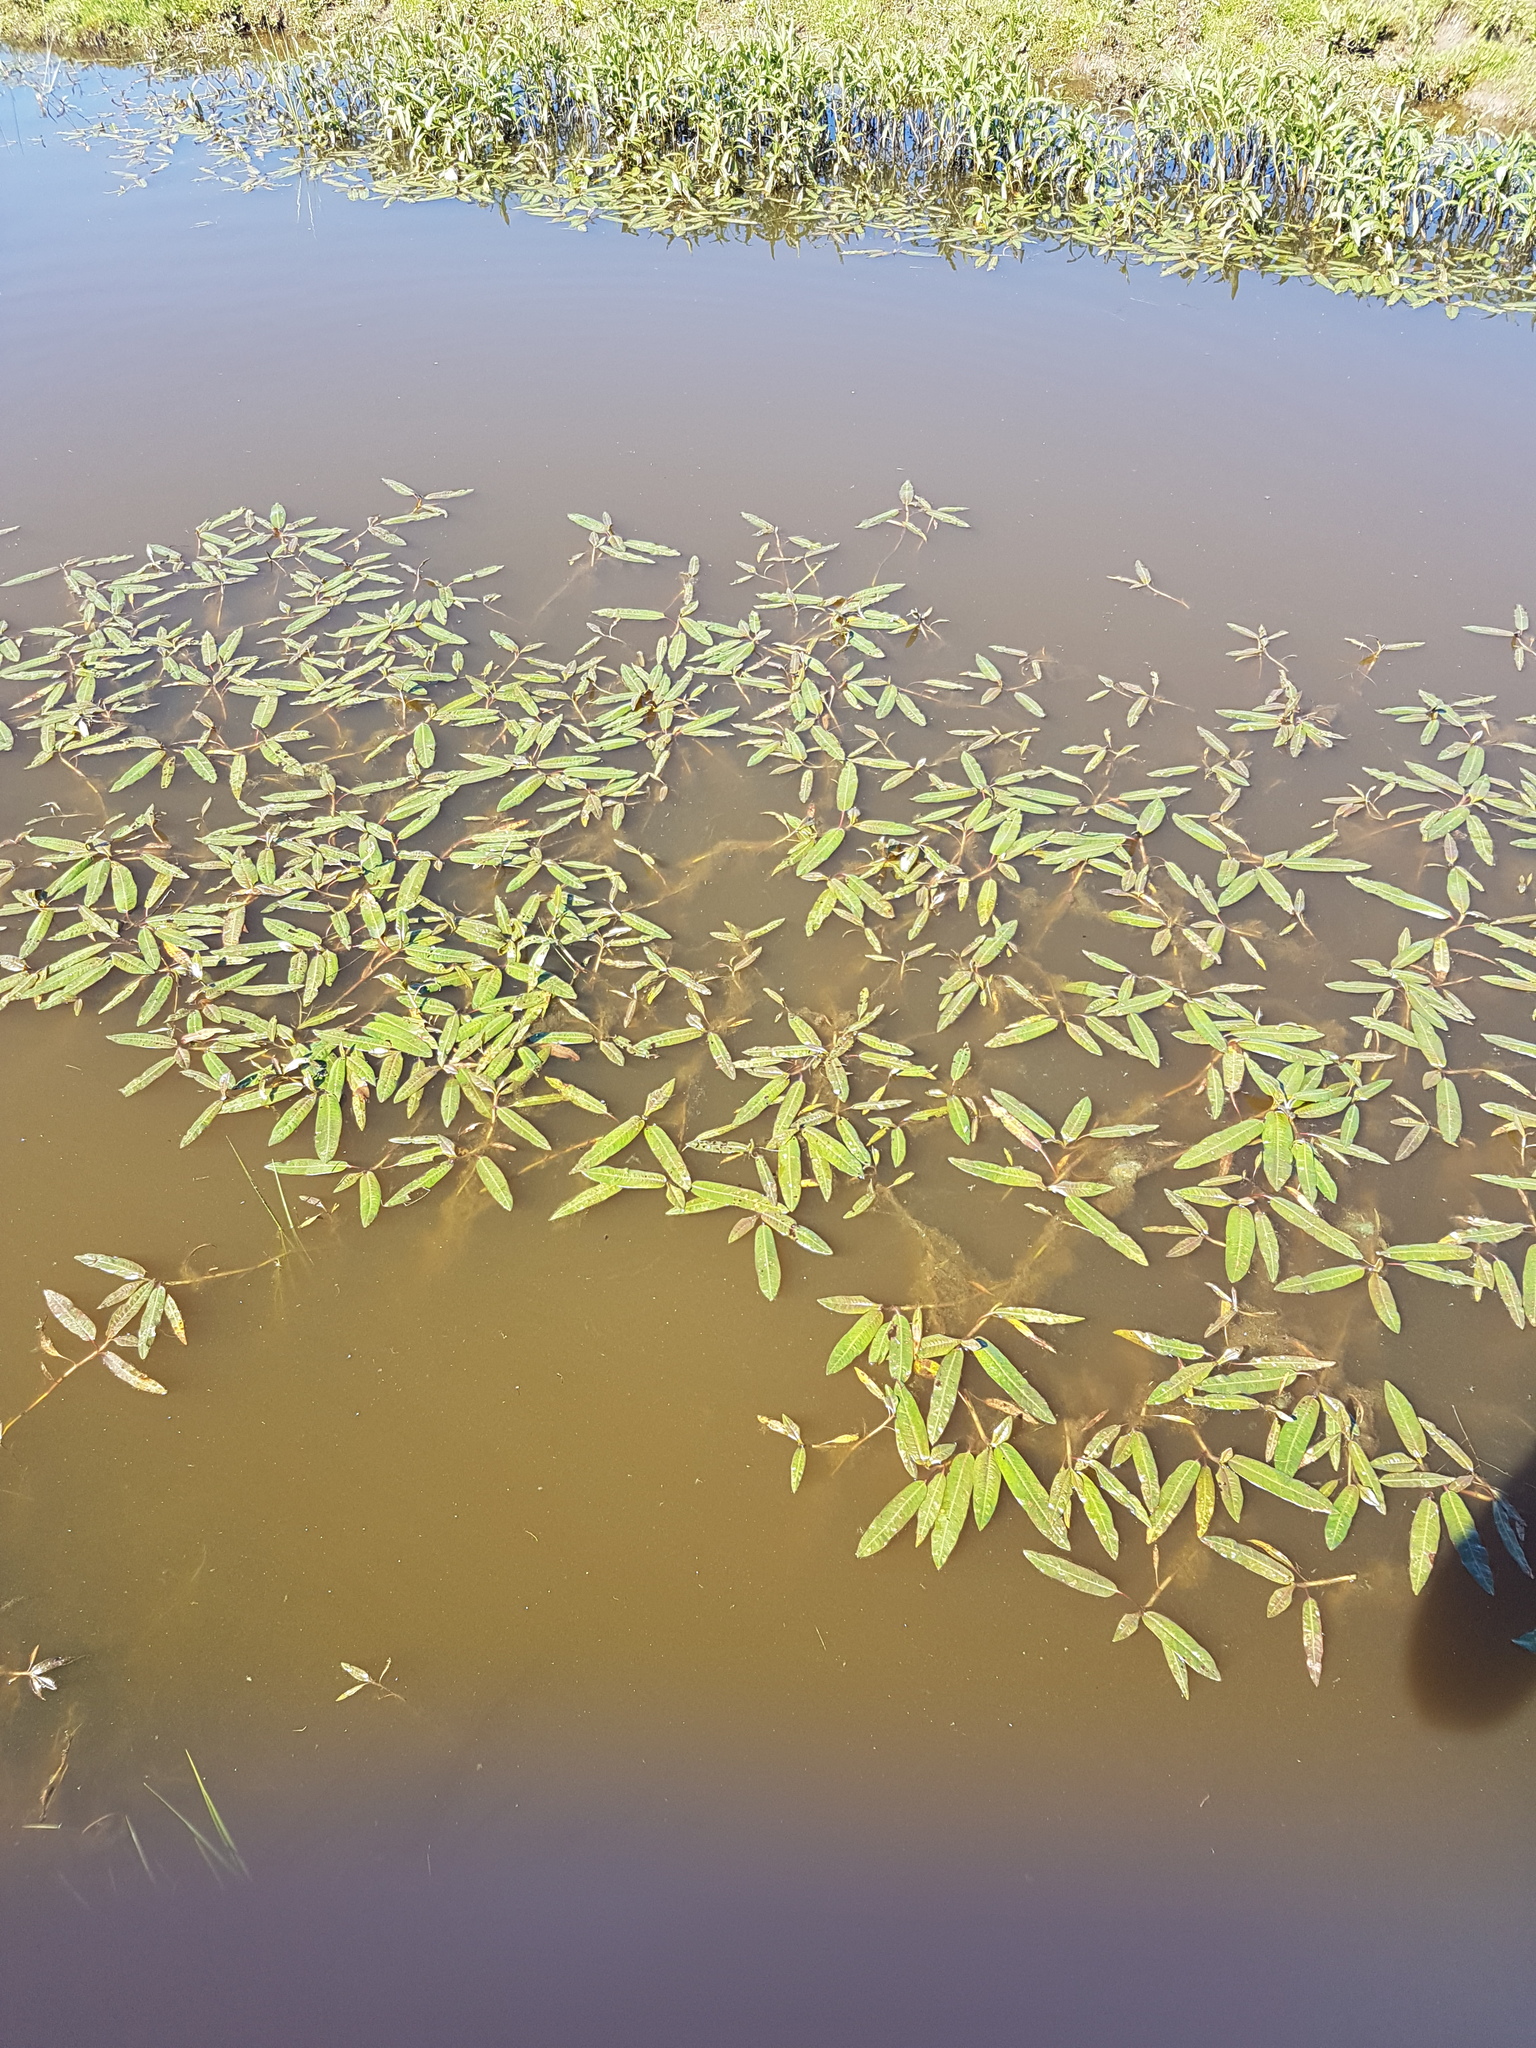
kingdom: Plantae
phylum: Tracheophyta
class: Magnoliopsida
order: Caryophyllales
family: Polygonaceae
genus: Persicaria
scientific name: Persicaria amphibia
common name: Amphibious bistort
